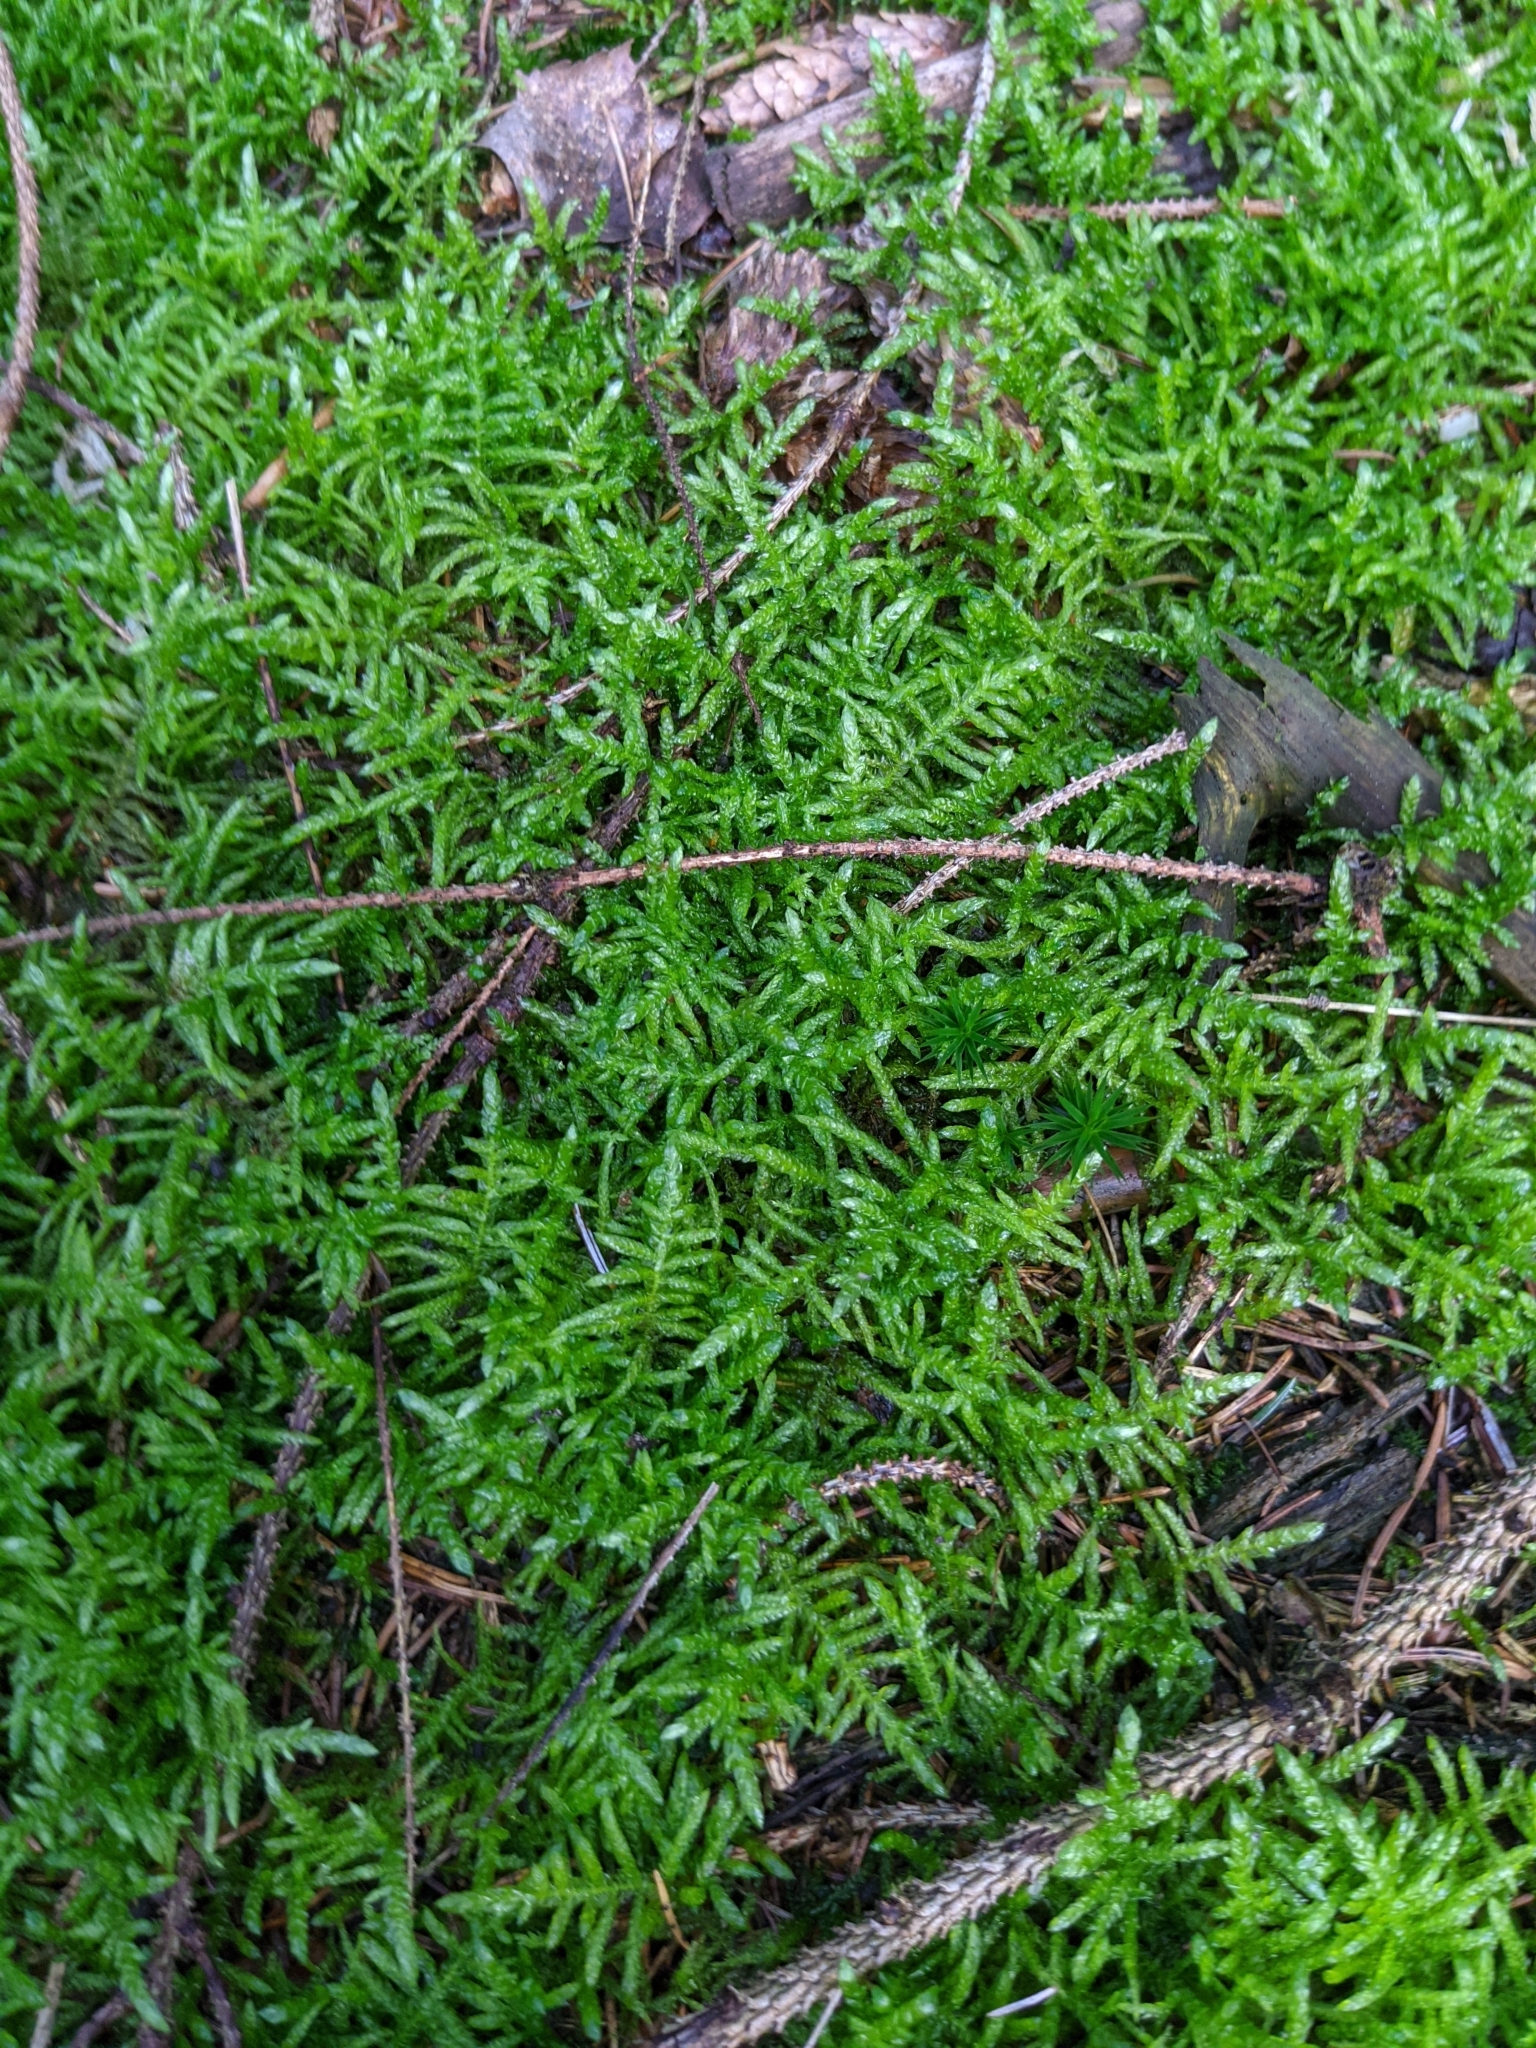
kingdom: Plantae
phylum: Bryophyta
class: Bryopsida
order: Hypnales
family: Brachytheciaceae
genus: Pseudoscleropodium
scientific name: Pseudoscleropodium purum
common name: Neat feather-moss
